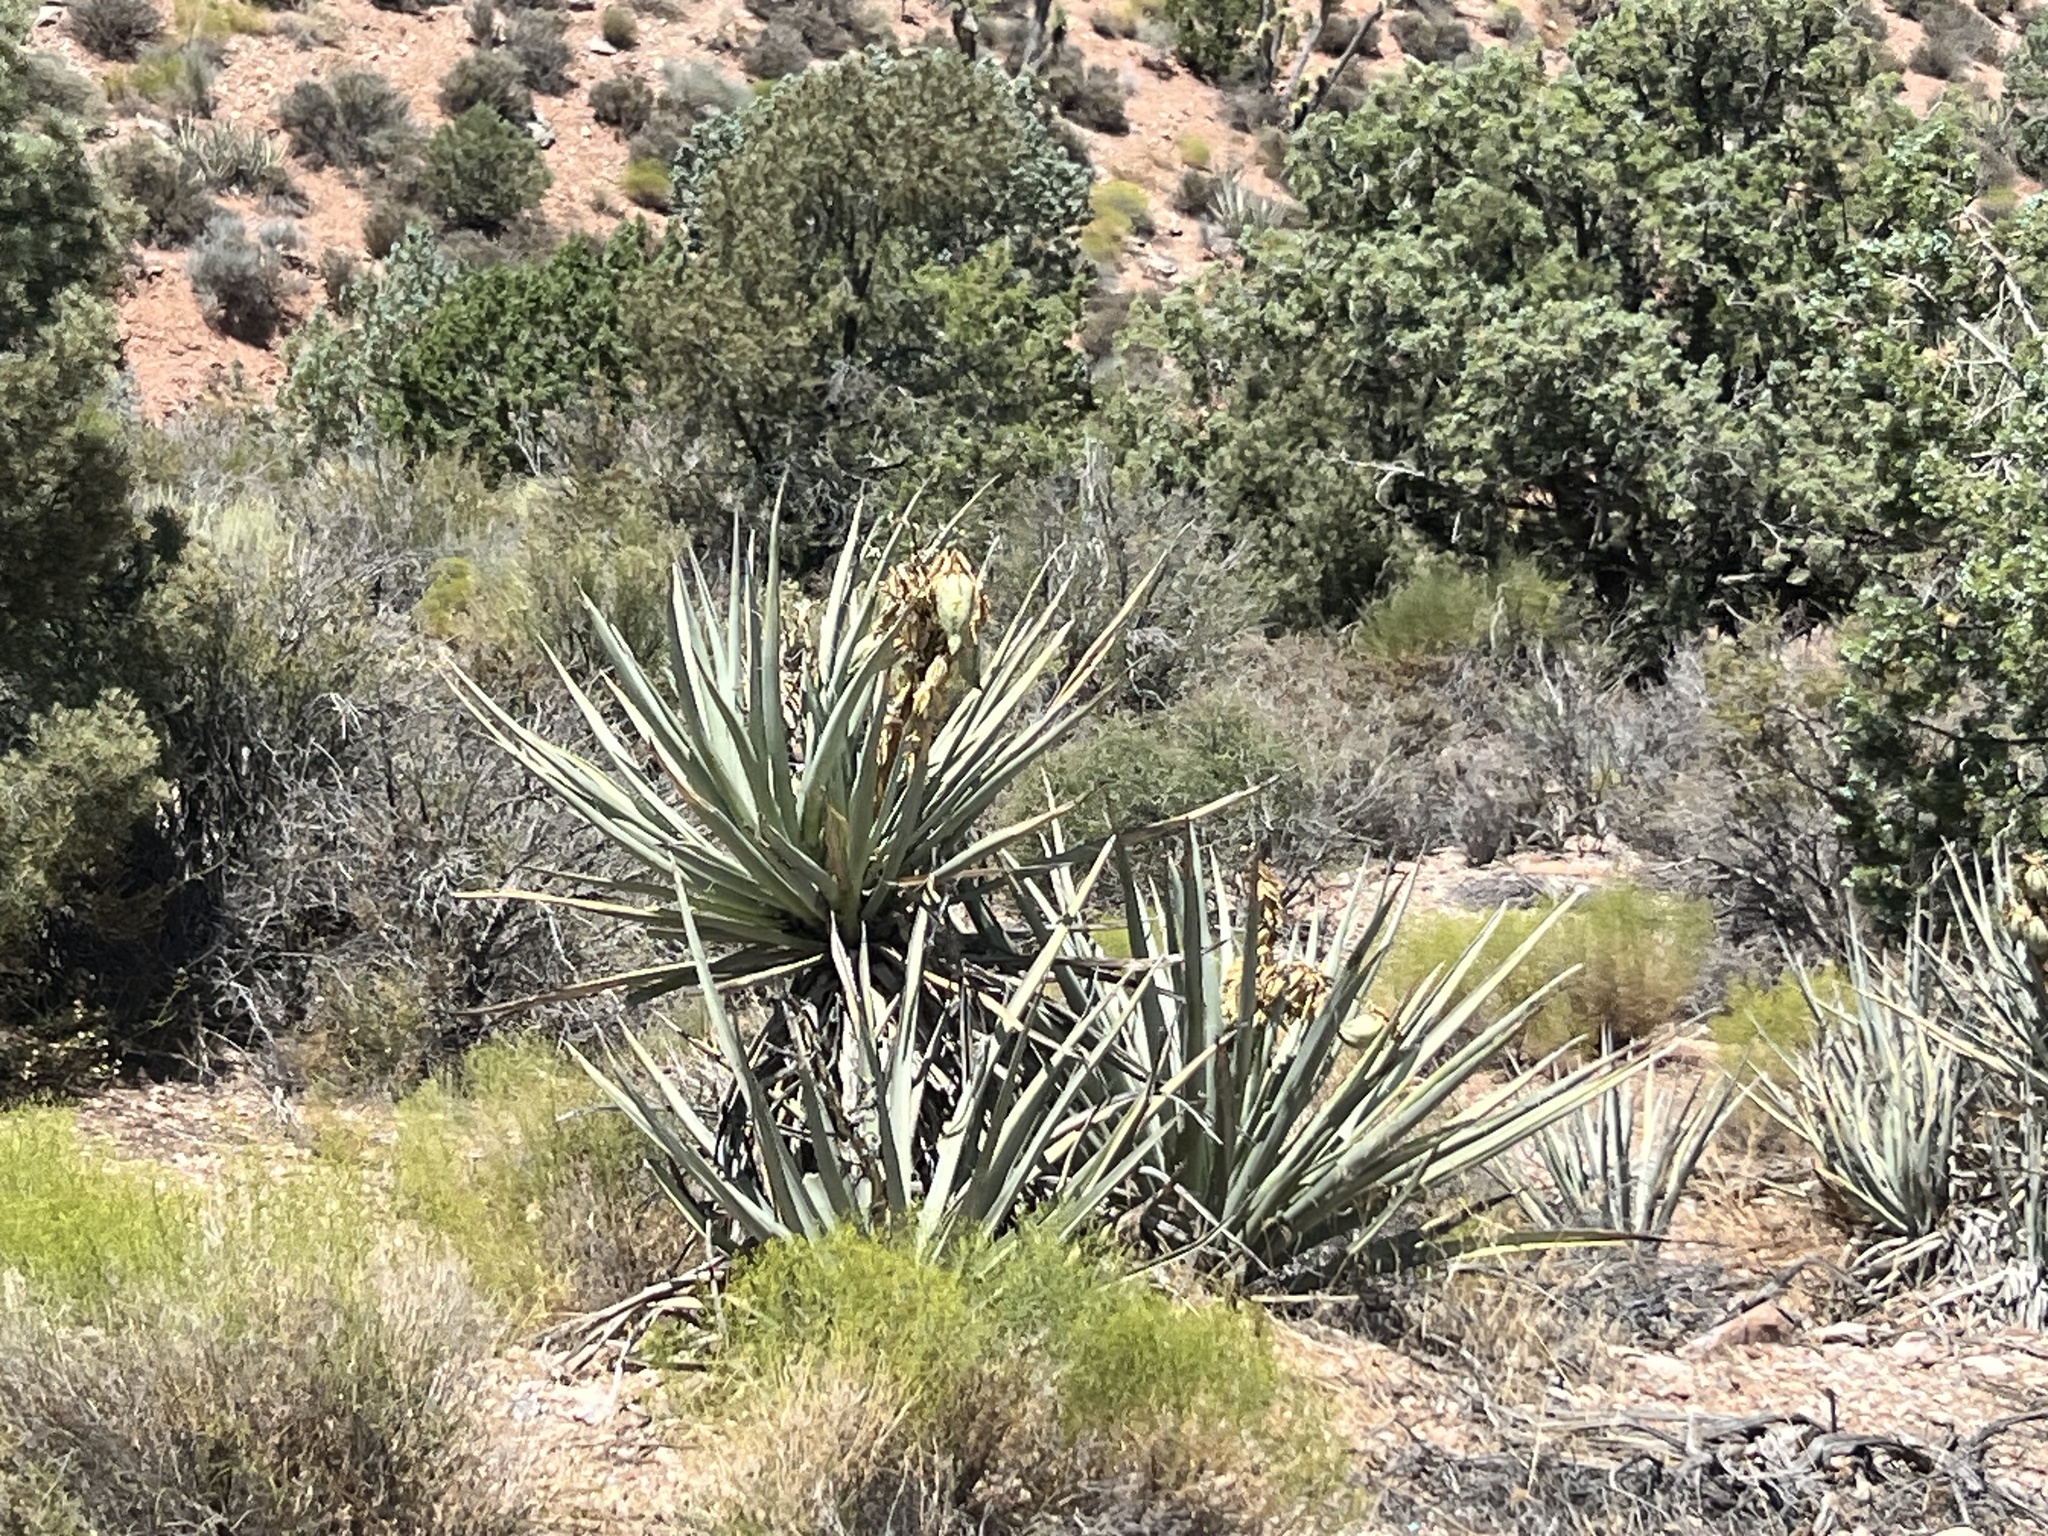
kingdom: Plantae
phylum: Tracheophyta
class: Liliopsida
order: Asparagales
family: Asparagaceae
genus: Yucca
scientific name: Yucca baccata
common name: Banana yucca
